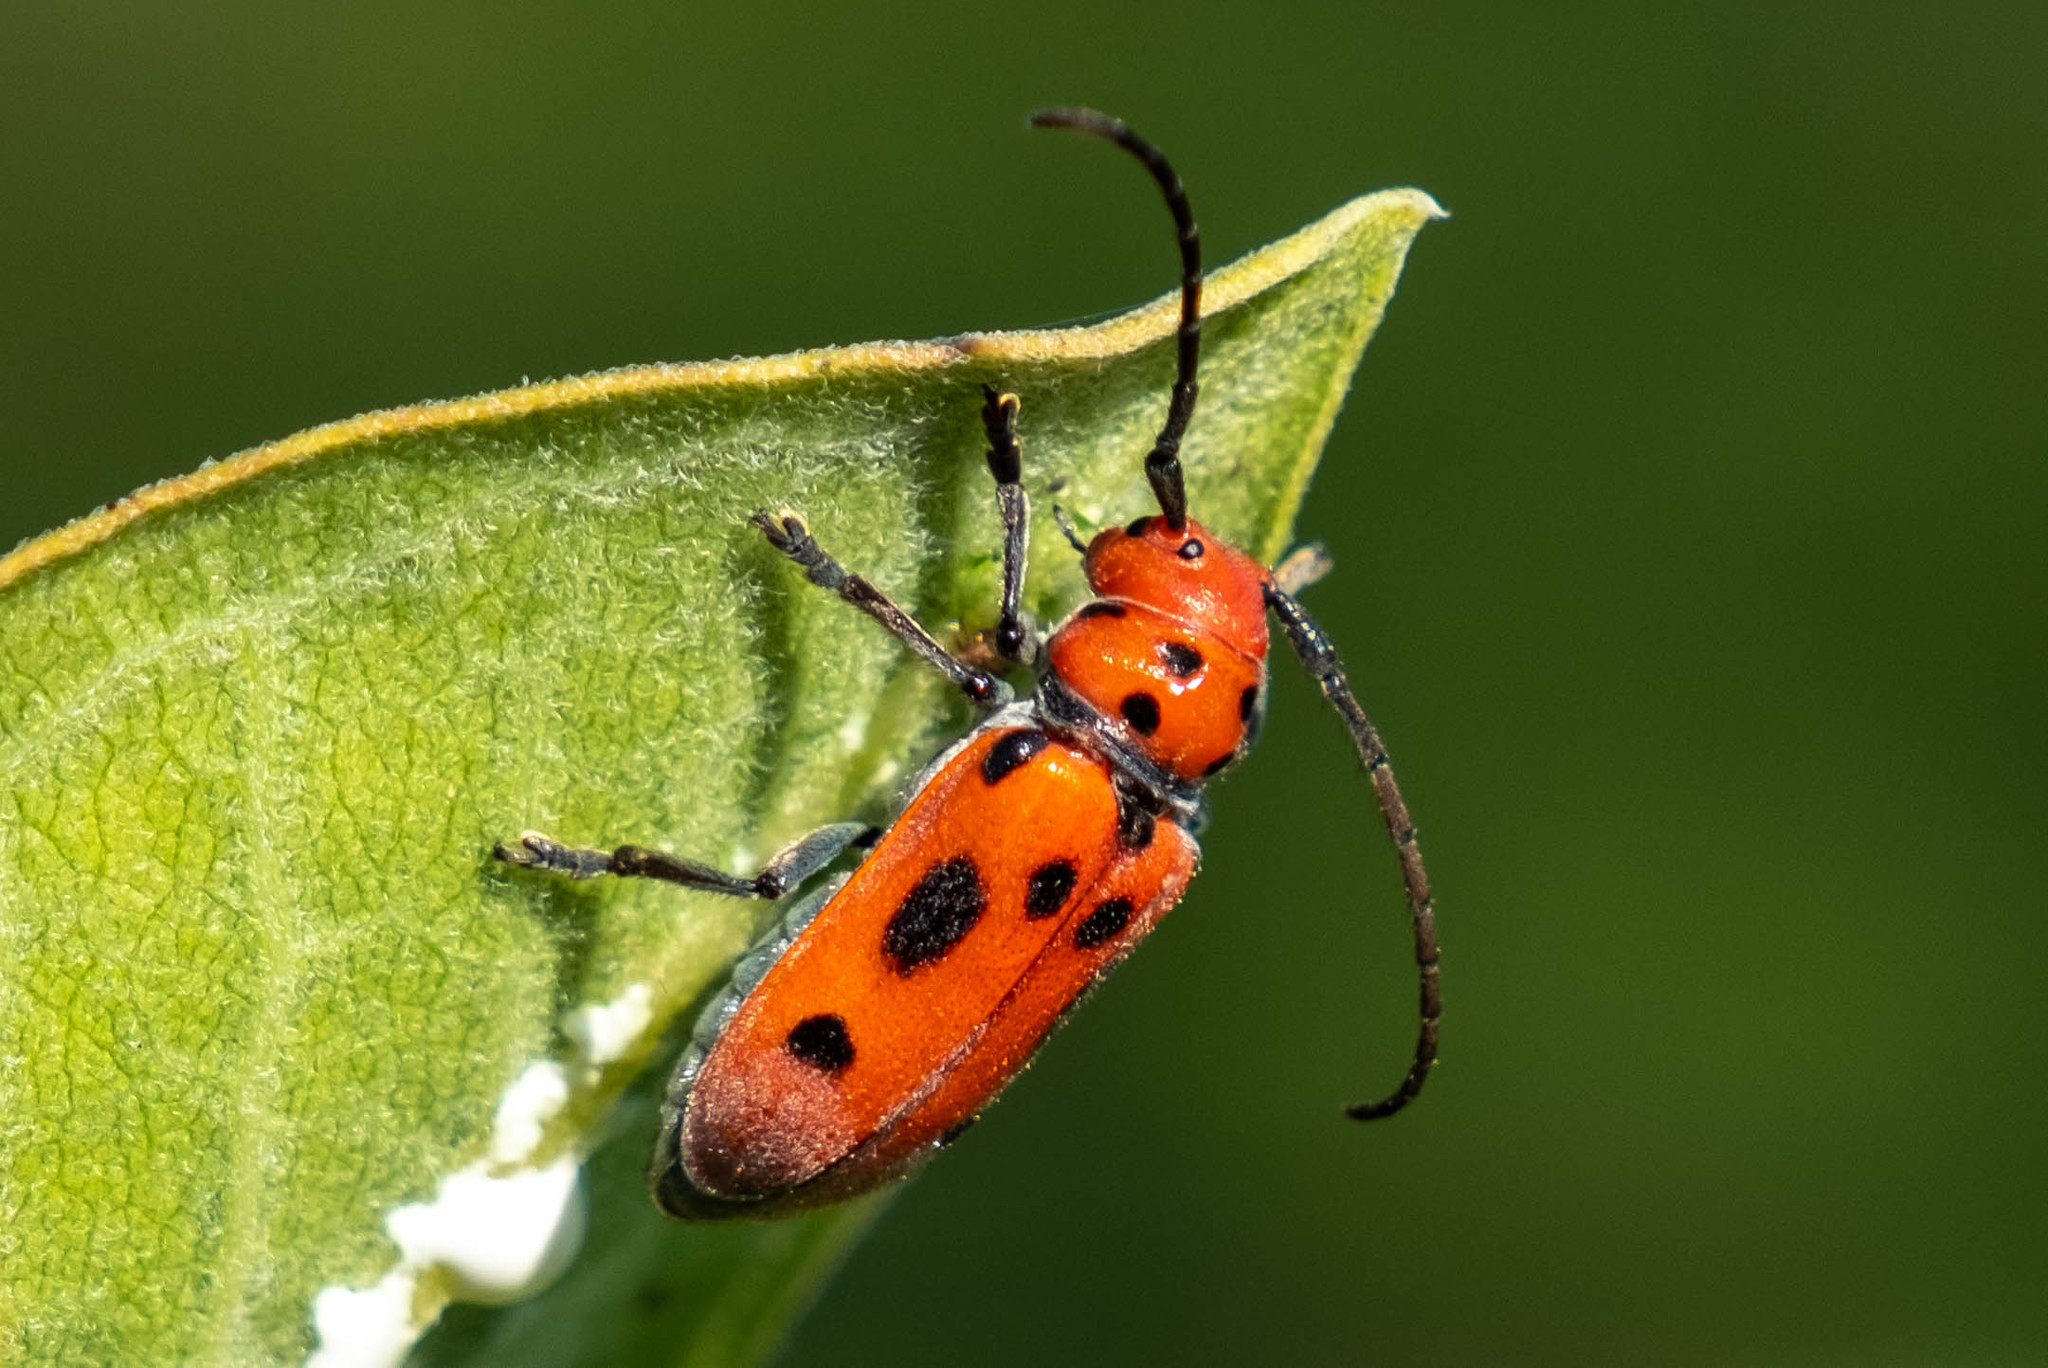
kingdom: Animalia
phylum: Arthropoda
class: Insecta
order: Coleoptera
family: Cerambycidae
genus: Tetraopes
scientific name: Tetraopes tetrophthalmus
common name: Red milkweed beetle
